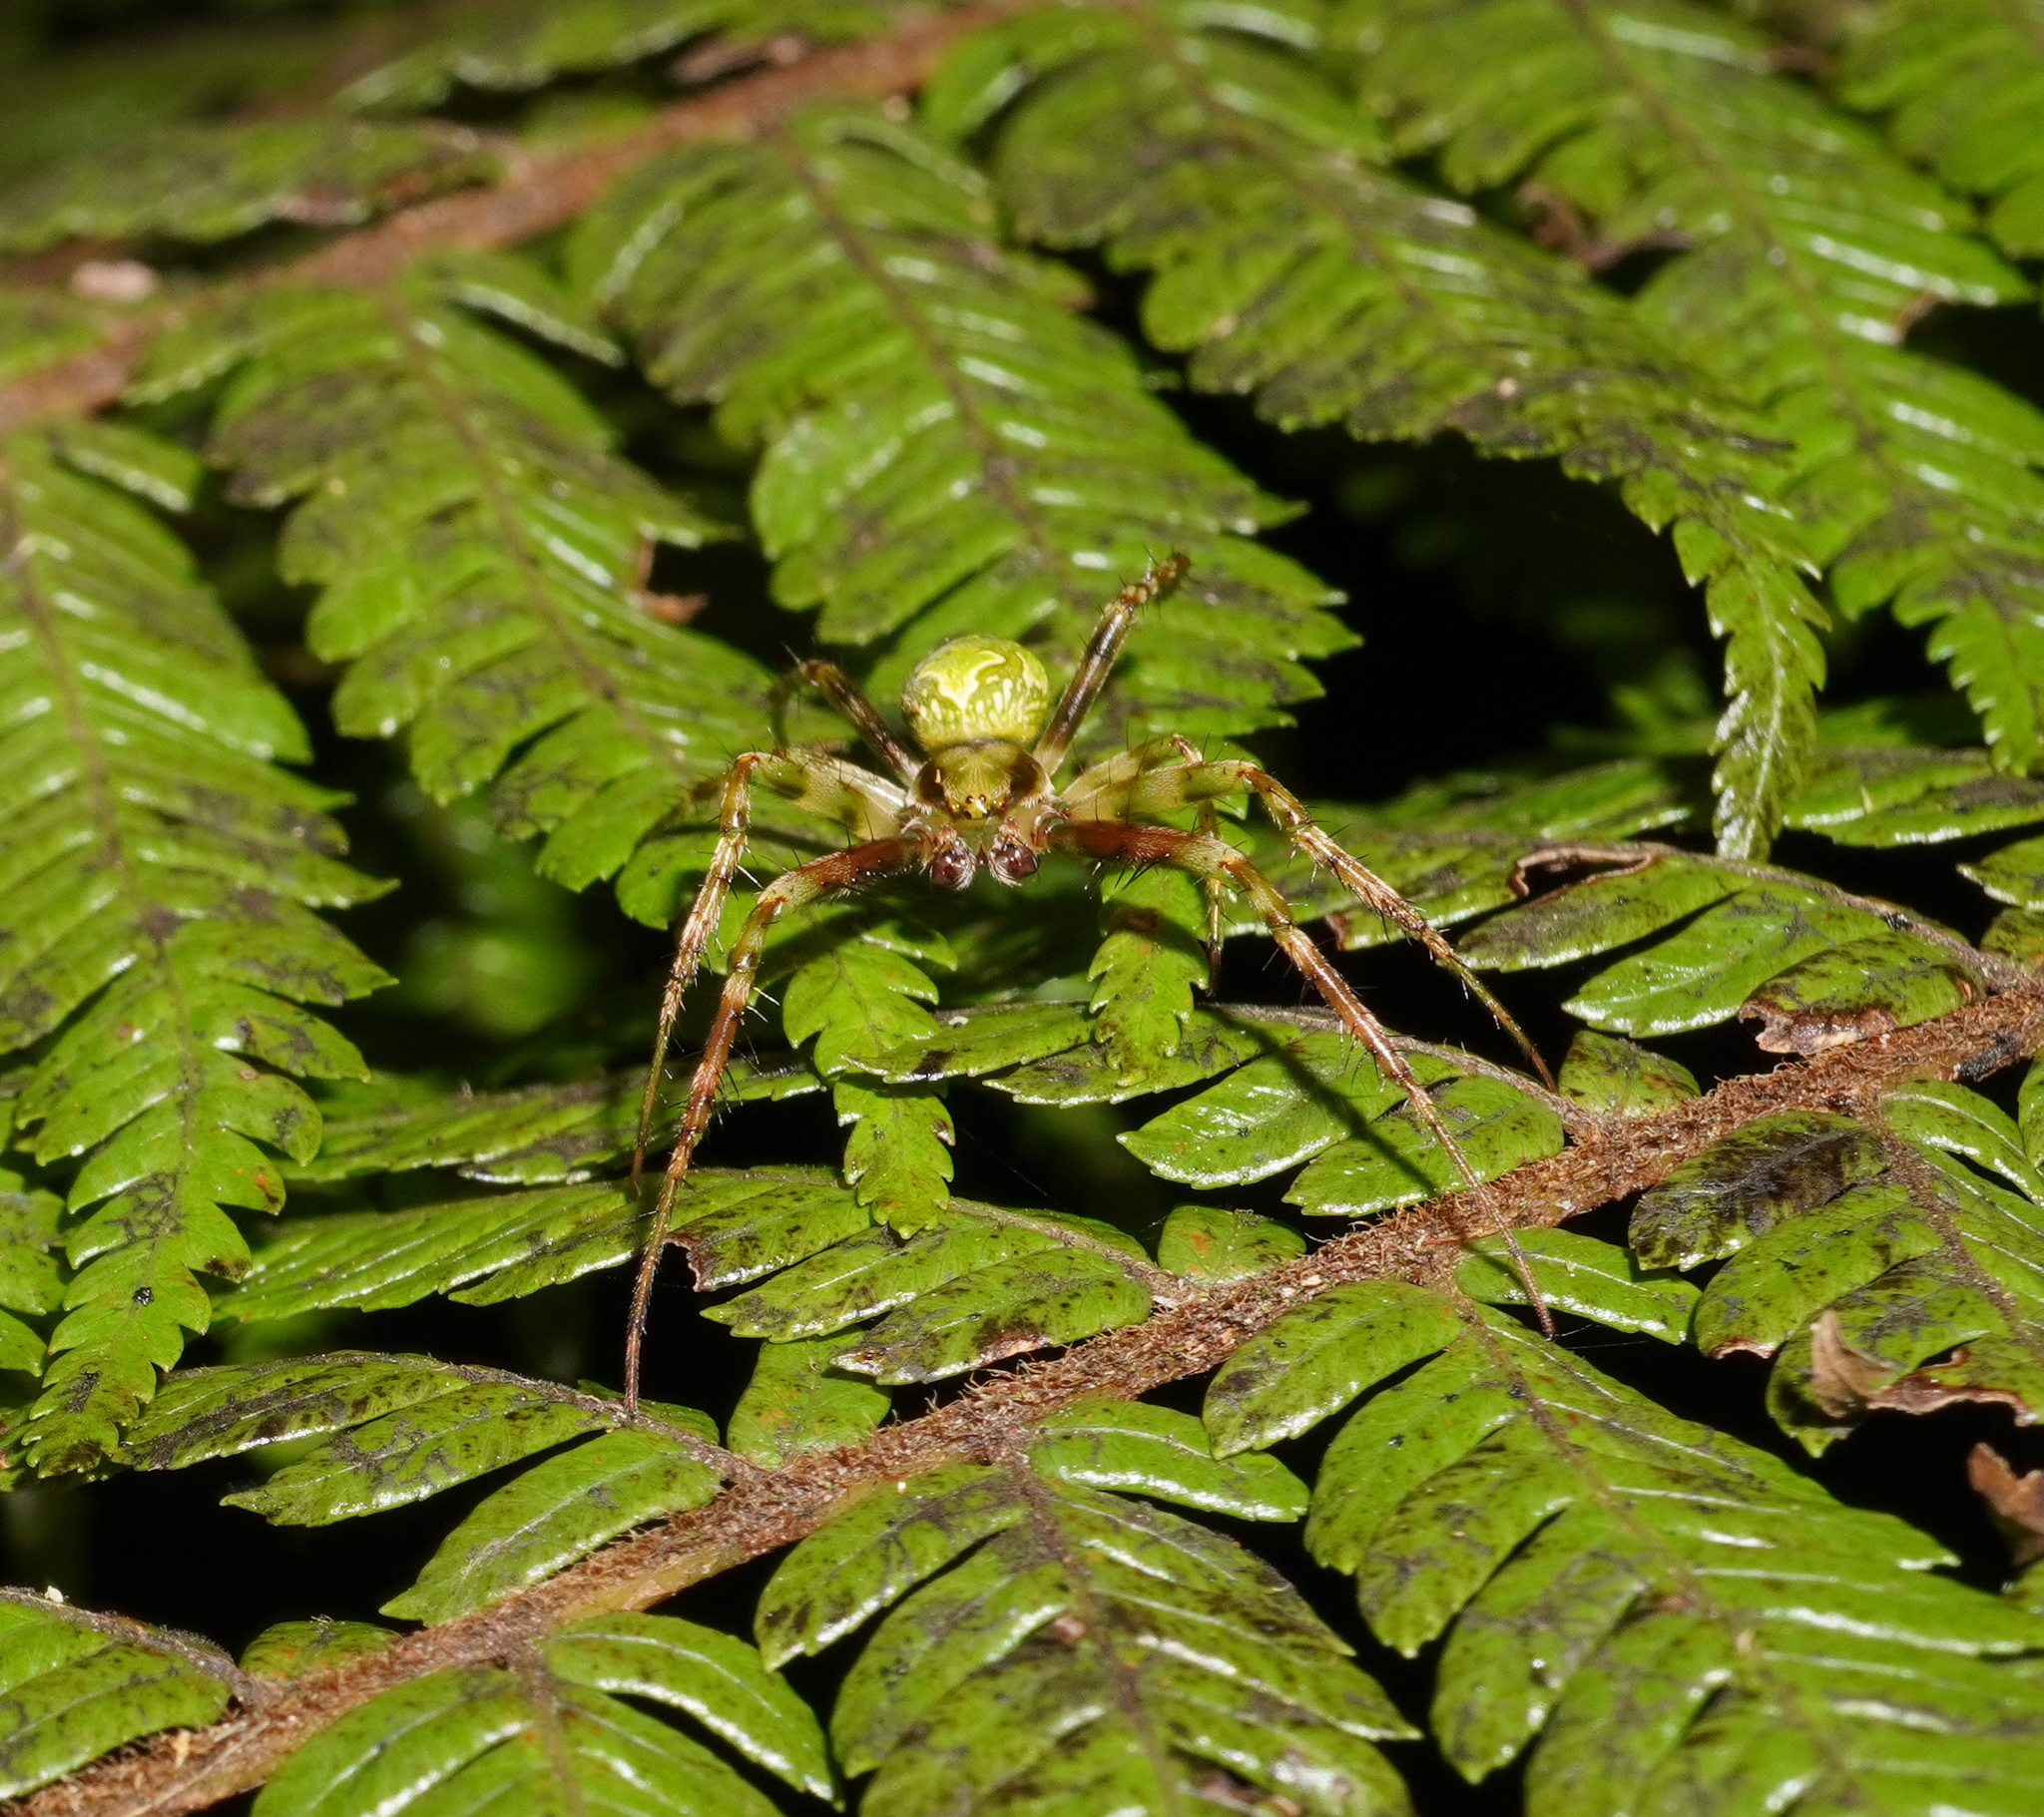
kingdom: Animalia
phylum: Arthropoda
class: Arachnida
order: Araneae
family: Araneidae
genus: Colaranea
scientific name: Colaranea verutum
